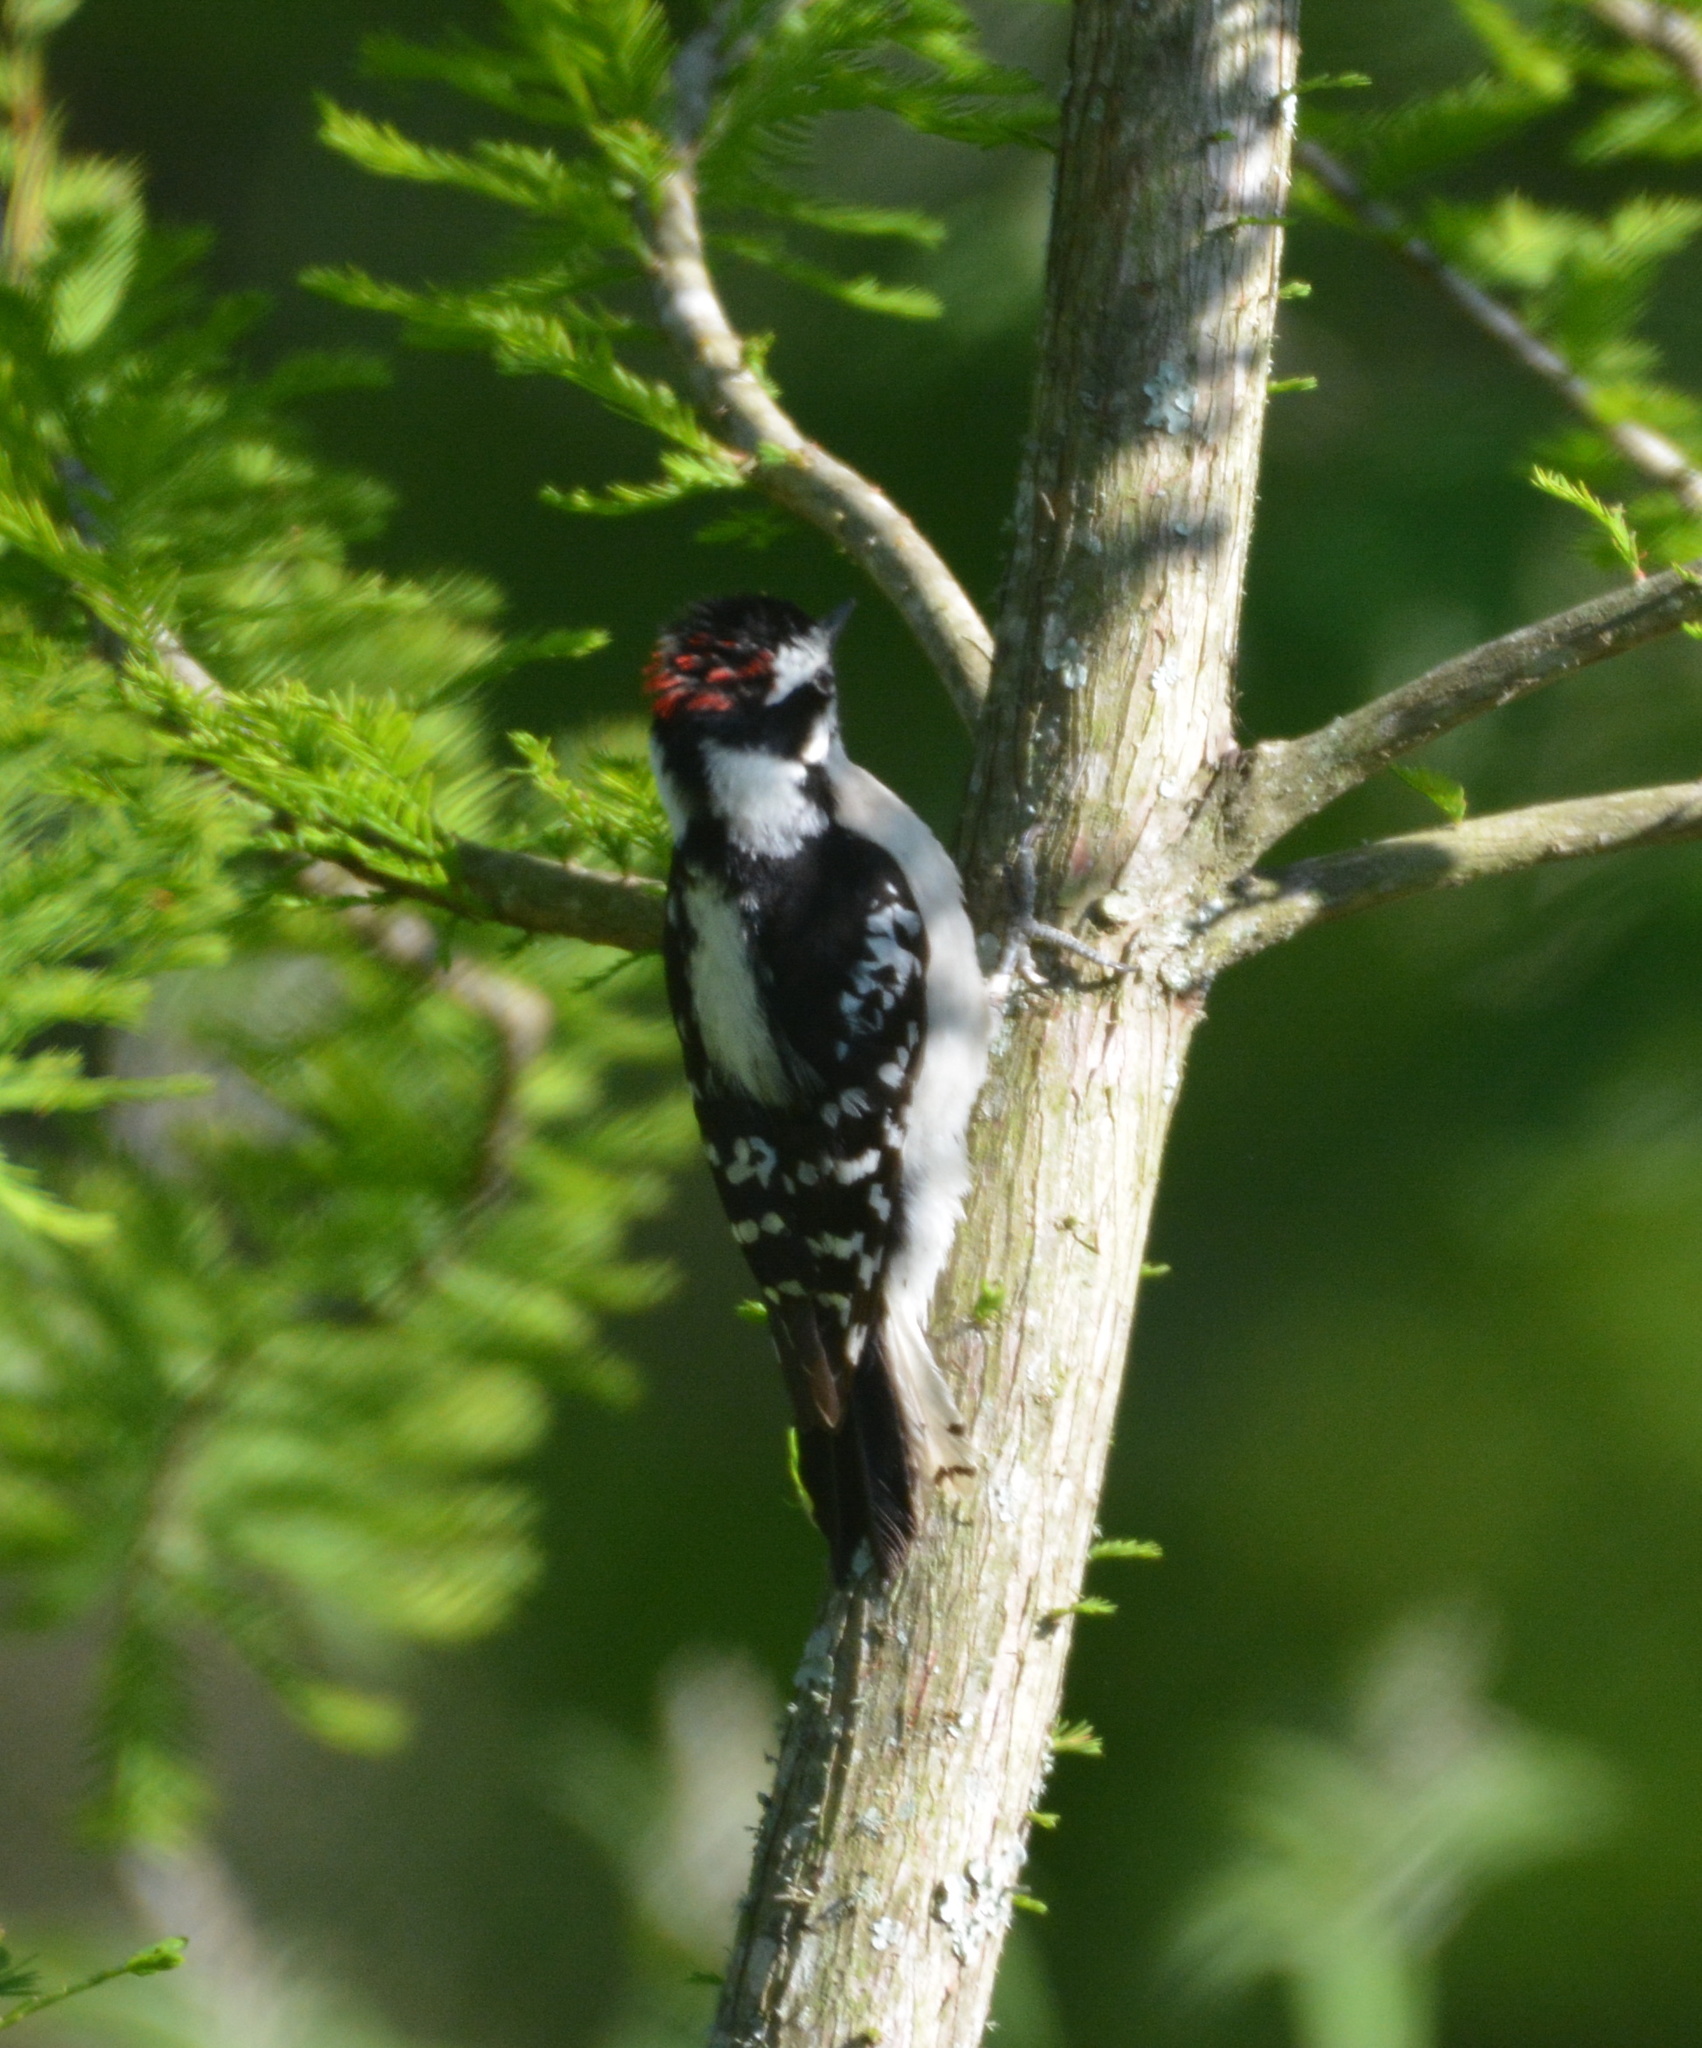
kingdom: Animalia
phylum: Chordata
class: Aves
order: Piciformes
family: Picidae
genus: Dryobates
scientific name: Dryobates pubescens
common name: Downy woodpecker
